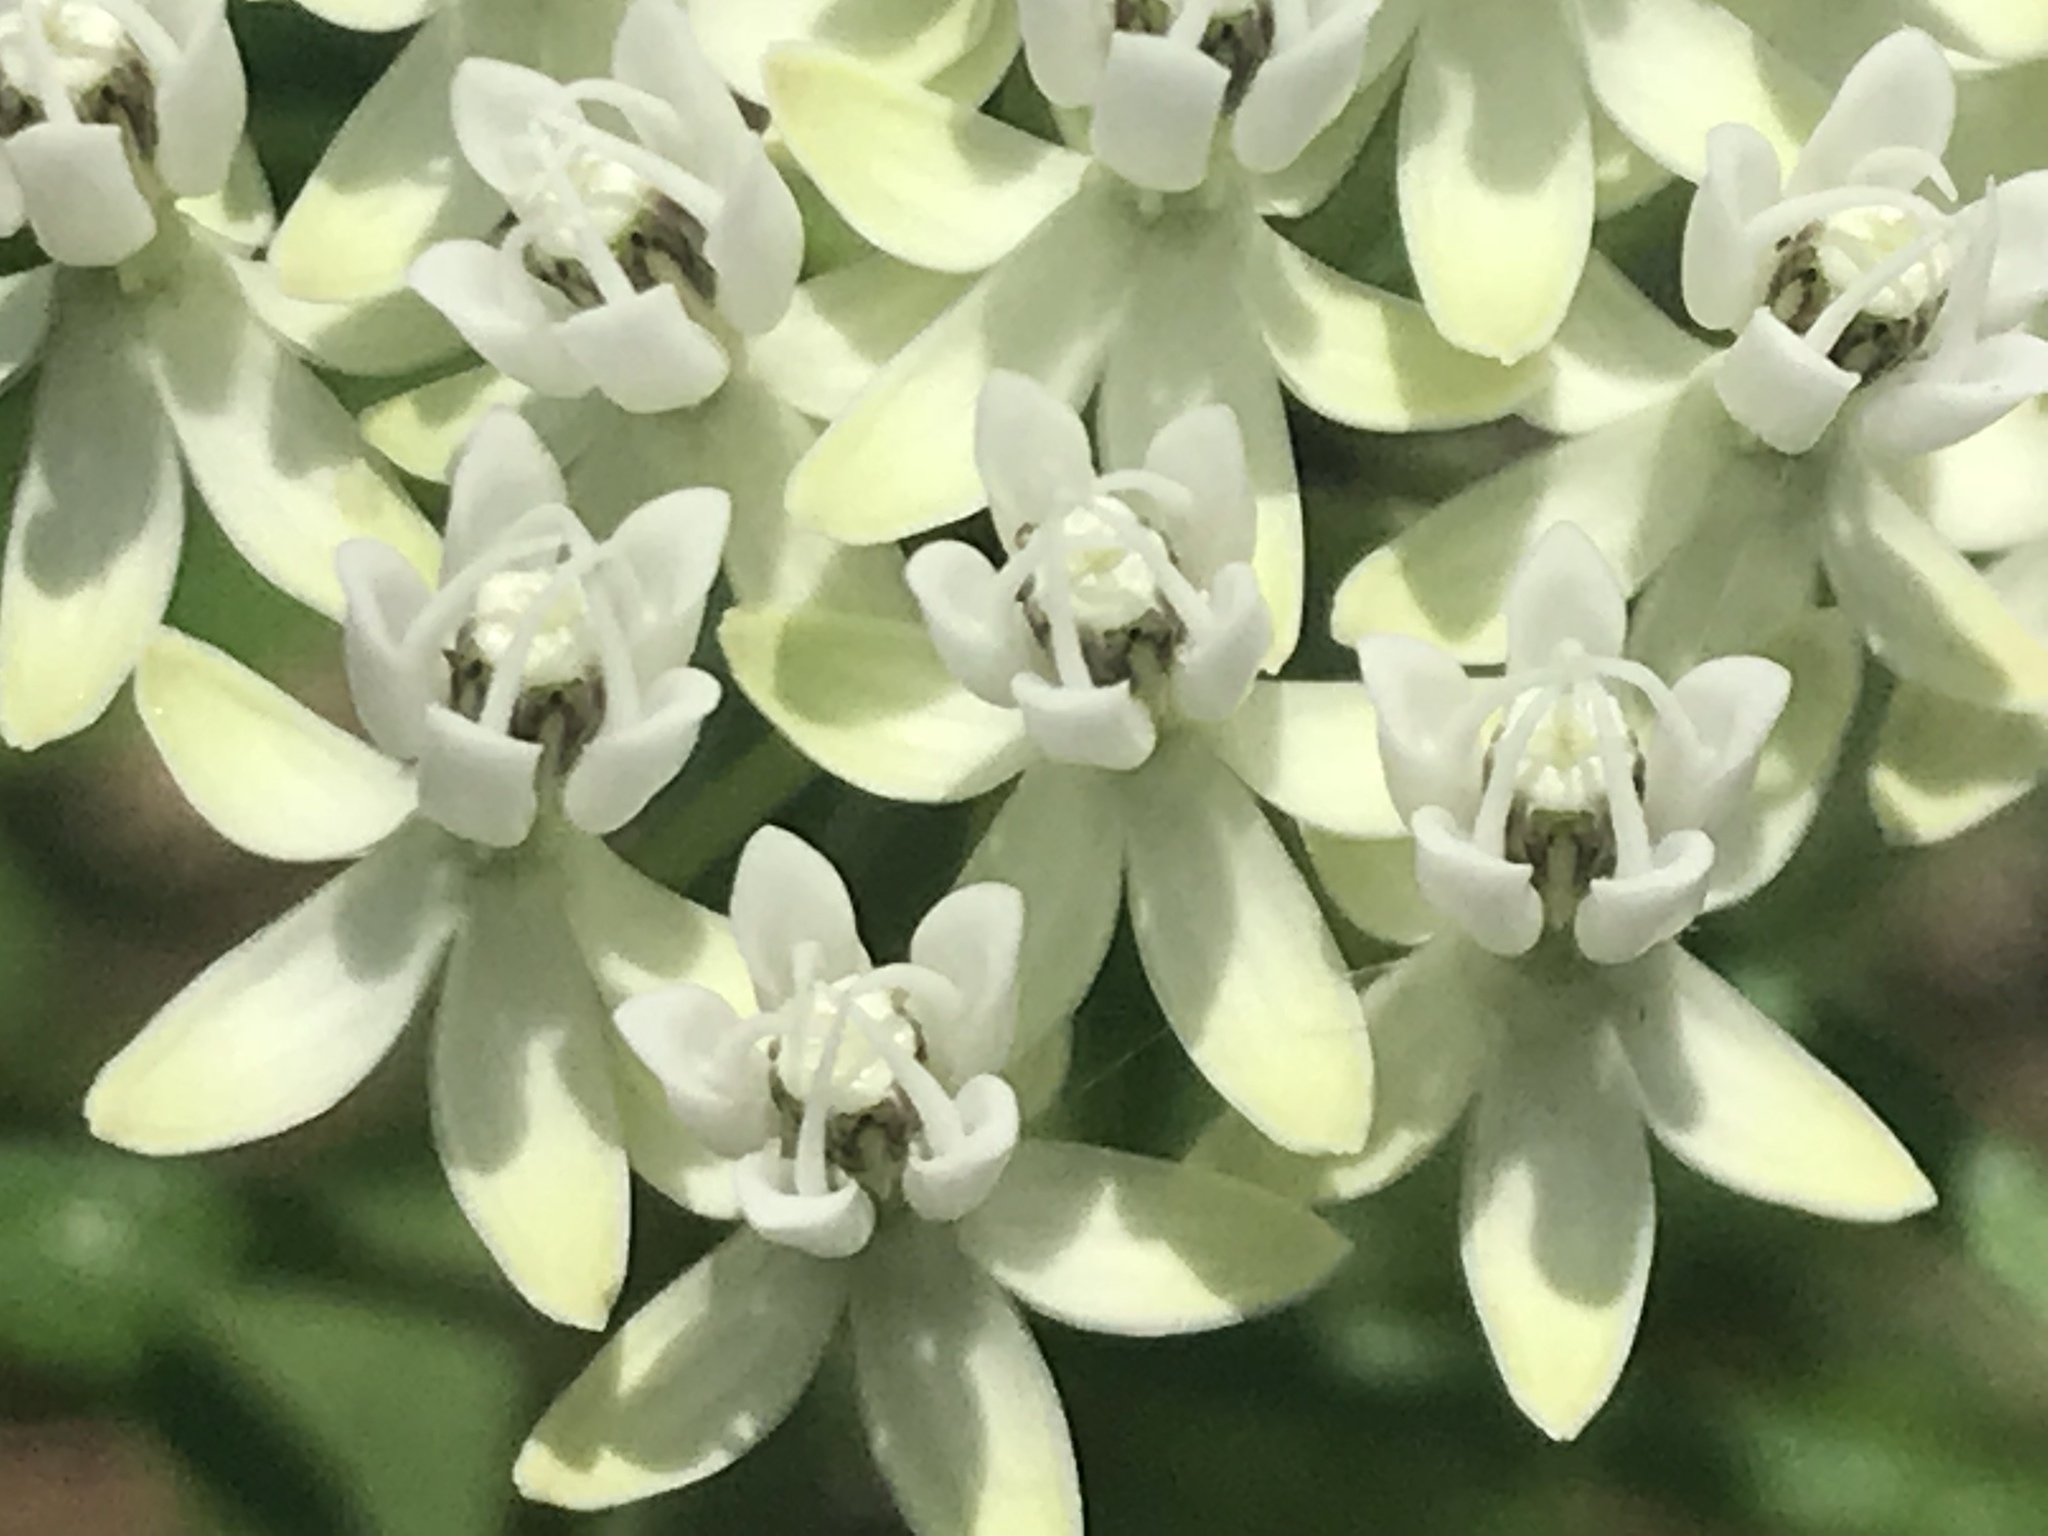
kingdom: Plantae
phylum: Tracheophyta
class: Magnoliopsida
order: Gentianales
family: Apocynaceae
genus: Asclepias
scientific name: Asclepias angustifolia
